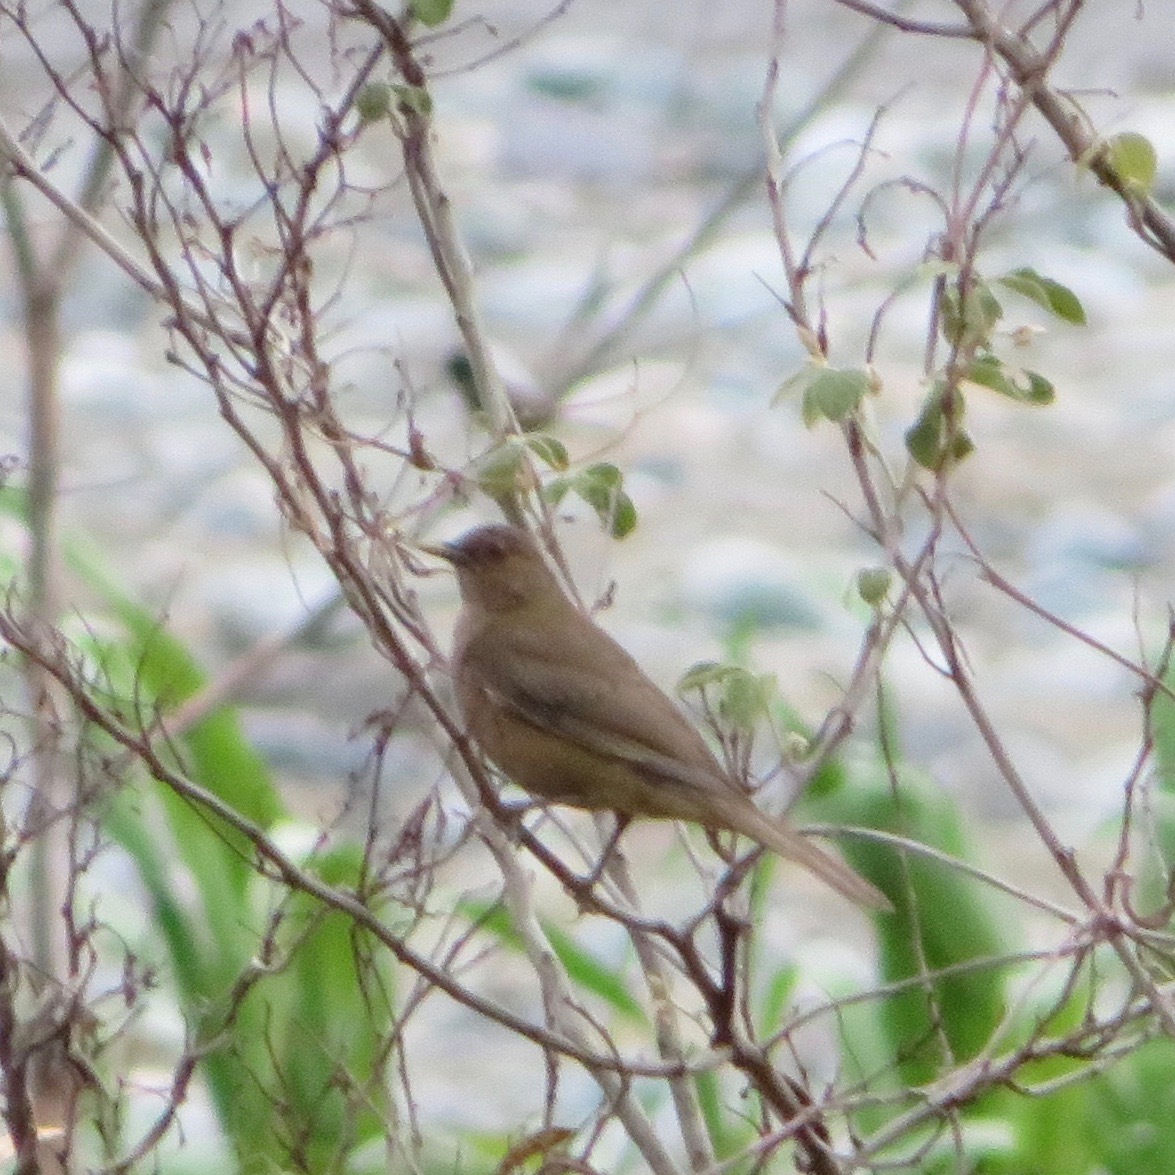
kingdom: Animalia
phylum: Chordata
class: Aves
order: Passeriformes
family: Turdidae
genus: Turdus
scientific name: Turdus grayi
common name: Clay-colored thrush
